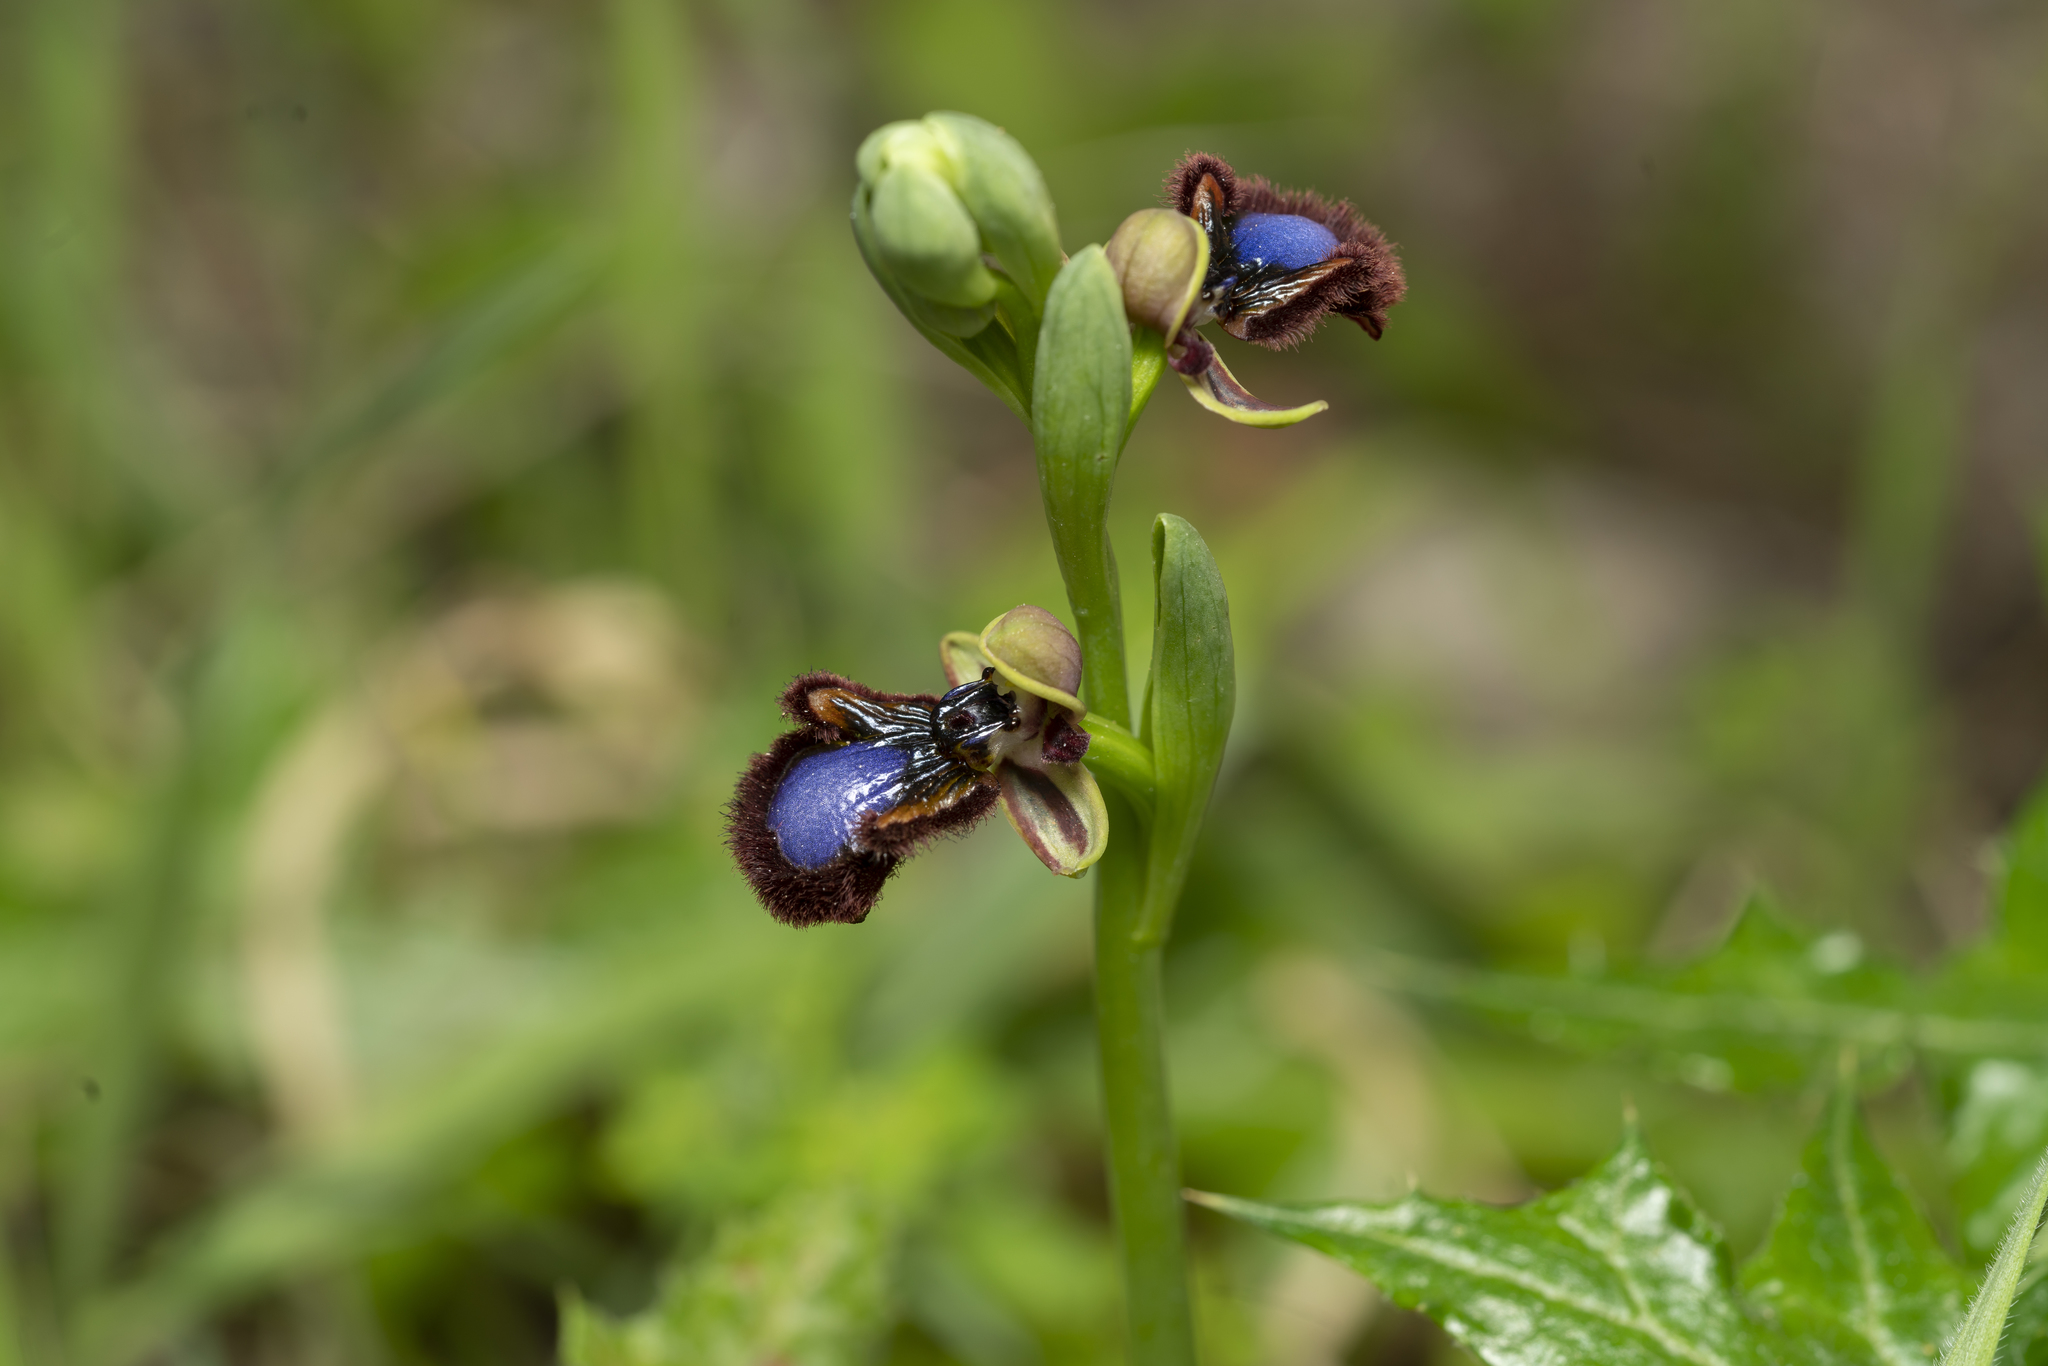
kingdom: Plantae
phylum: Tracheophyta
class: Liliopsida
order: Asparagales
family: Orchidaceae
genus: Ophrys
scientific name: Ophrys speculum
